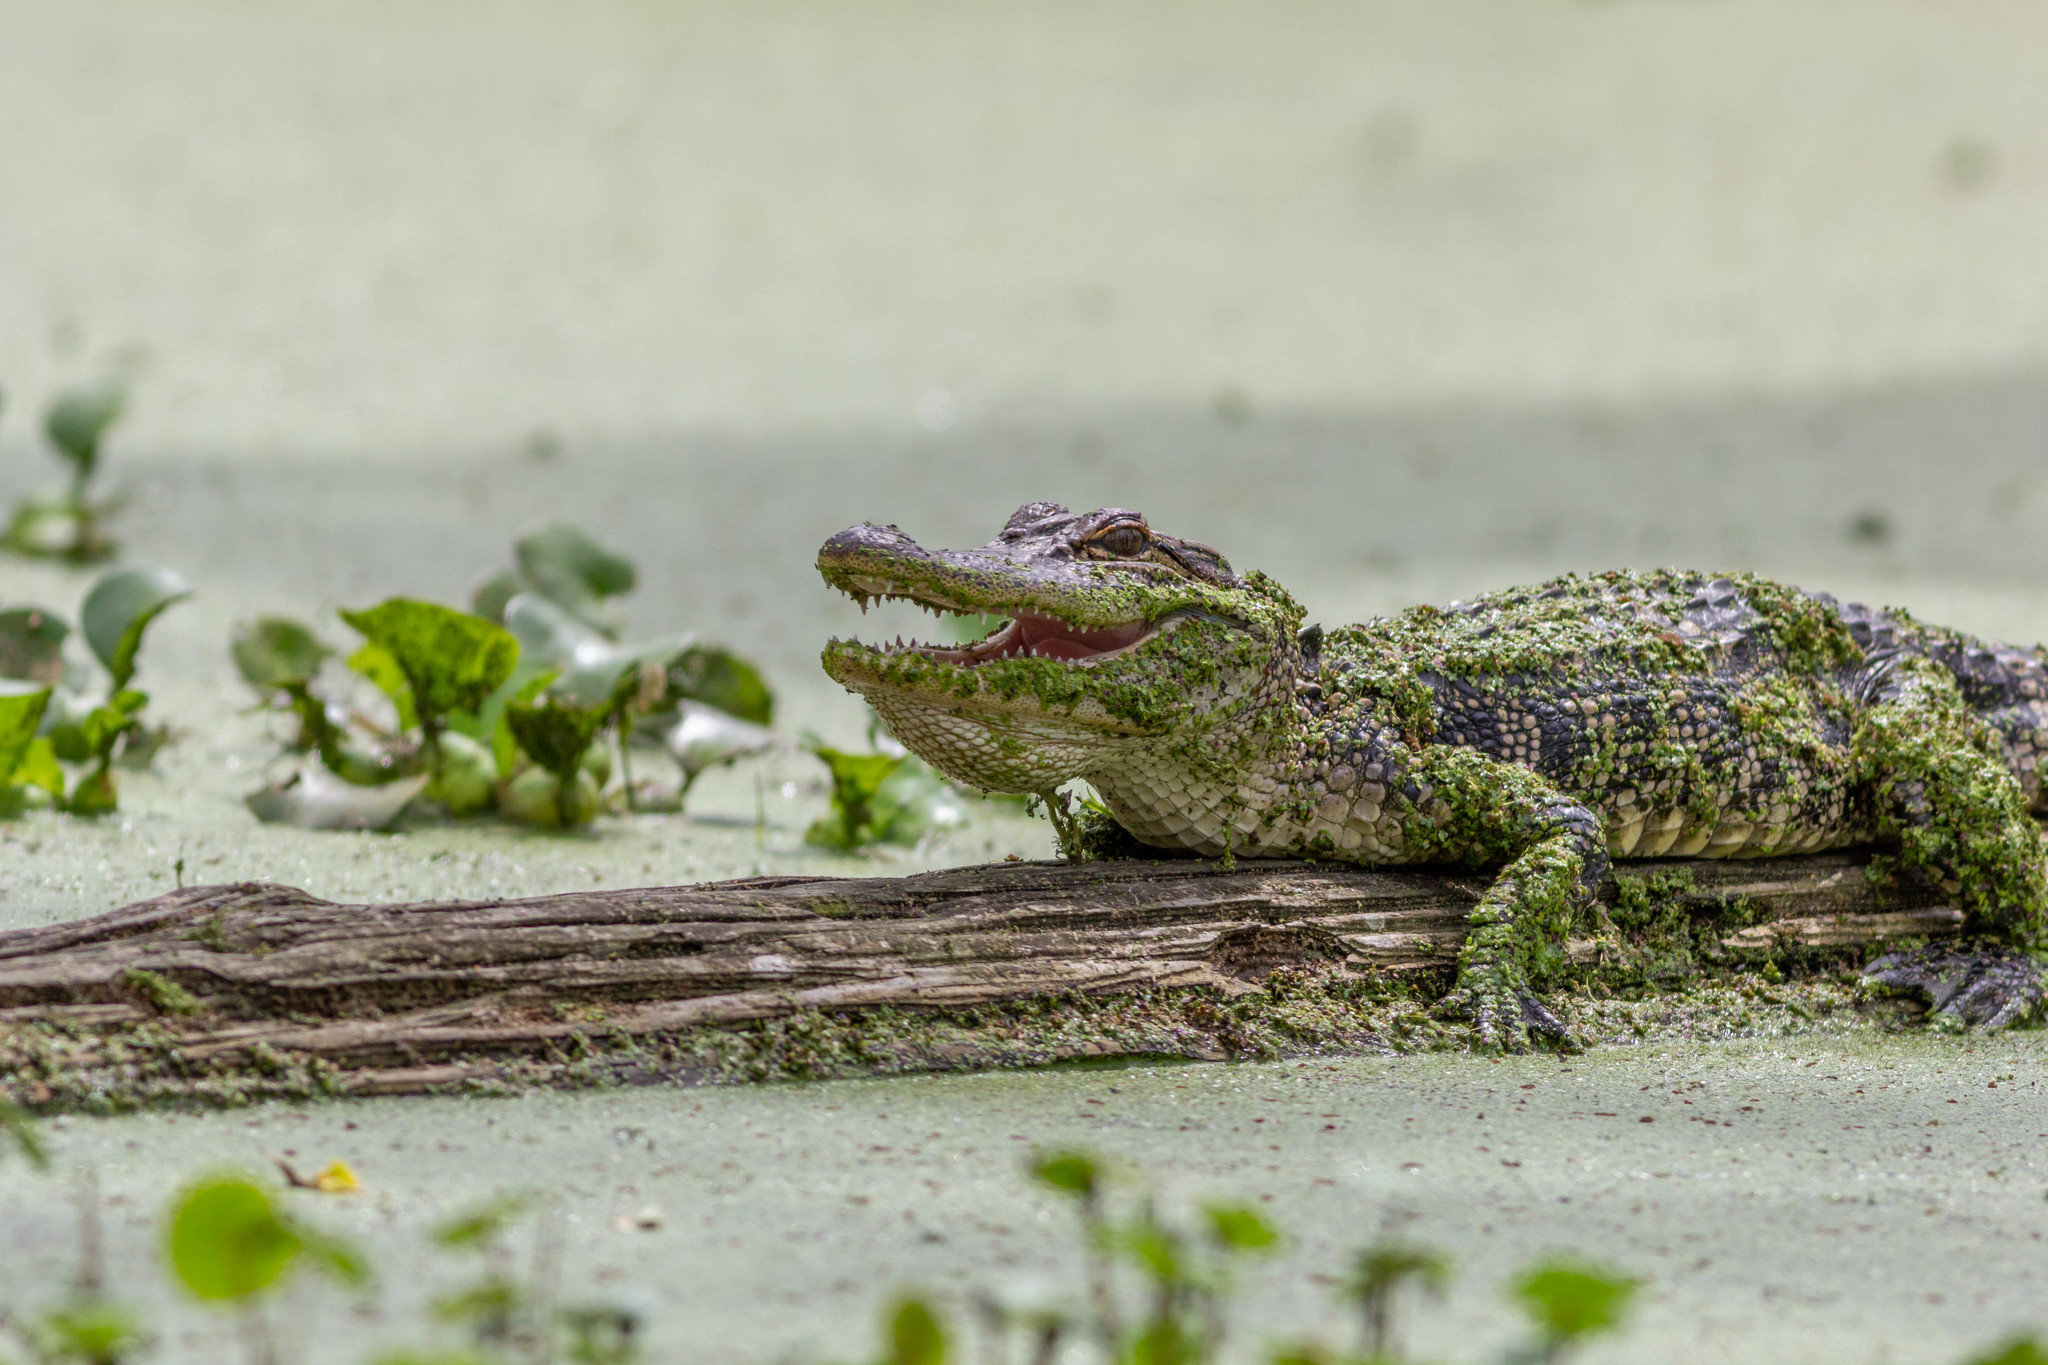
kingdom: Animalia
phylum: Chordata
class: Crocodylia
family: Alligatoridae
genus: Alligator
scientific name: Alligator mississippiensis
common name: American alligator
